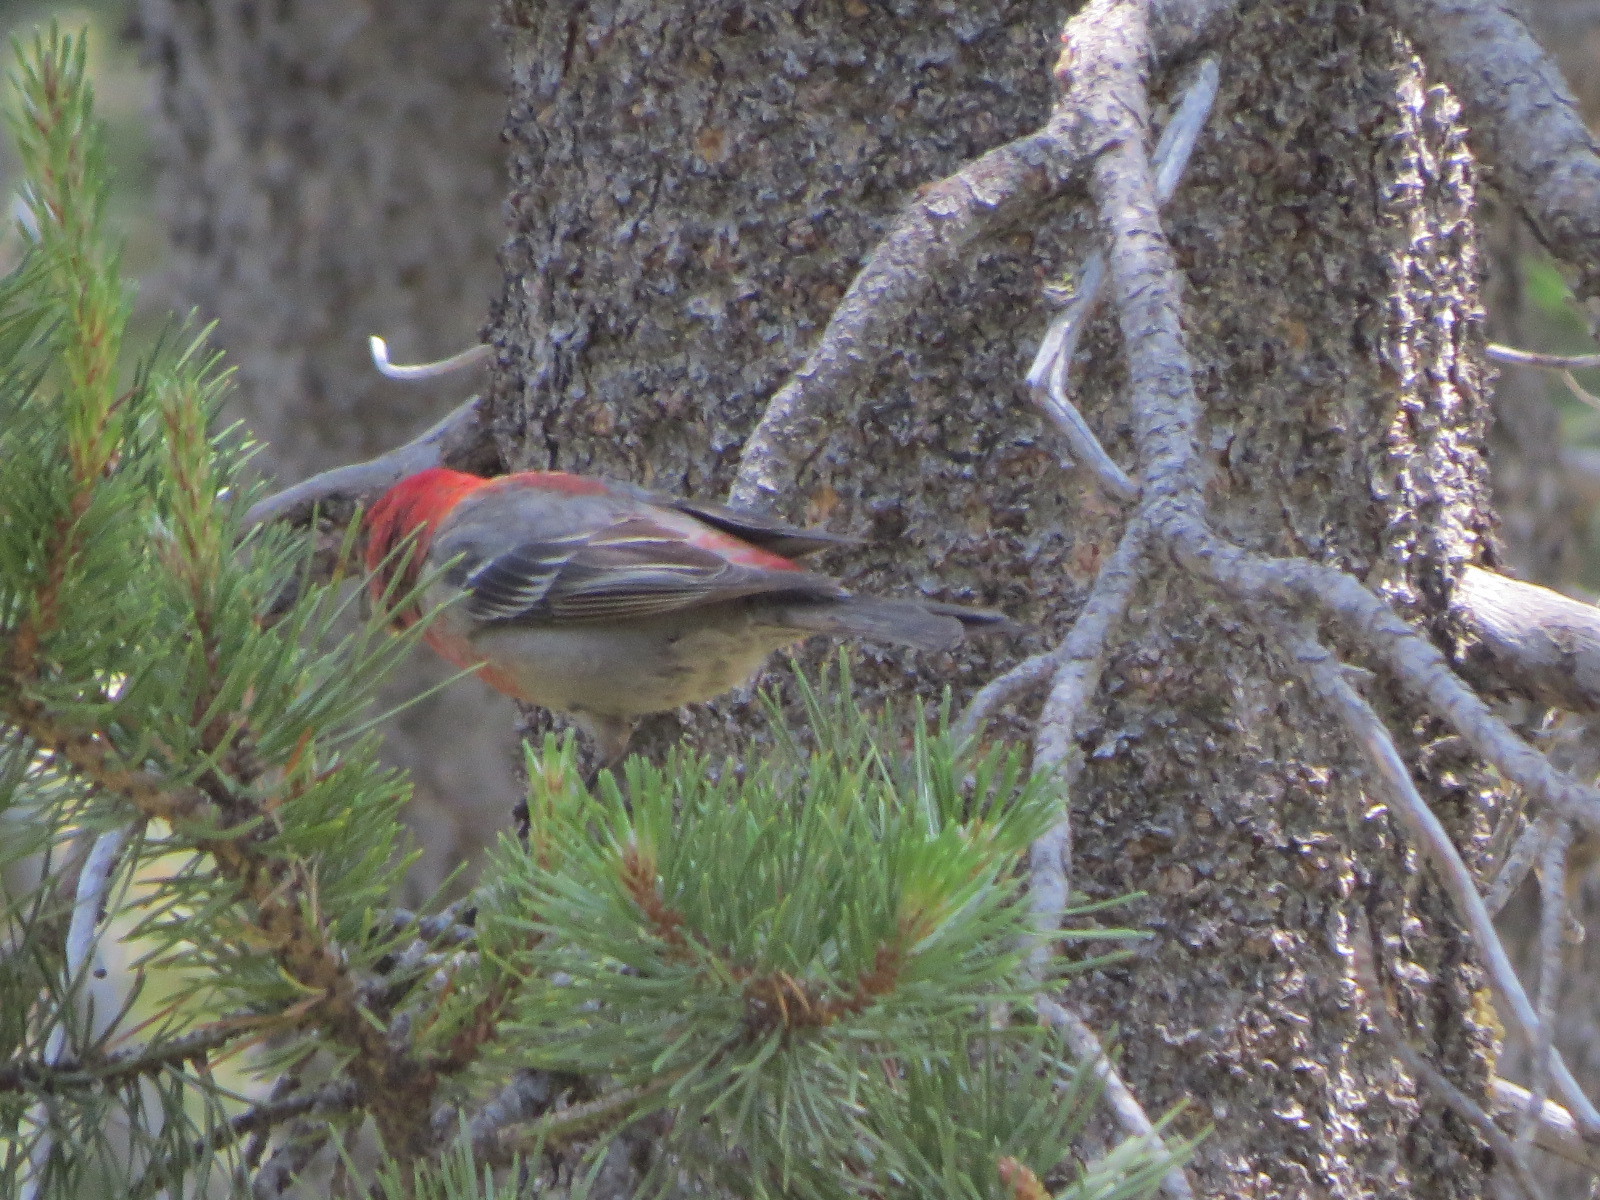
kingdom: Animalia
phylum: Chordata
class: Aves
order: Passeriformes
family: Fringillidae
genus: Pinicola
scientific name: Pinicola enucleator
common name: Pine grosbeak
